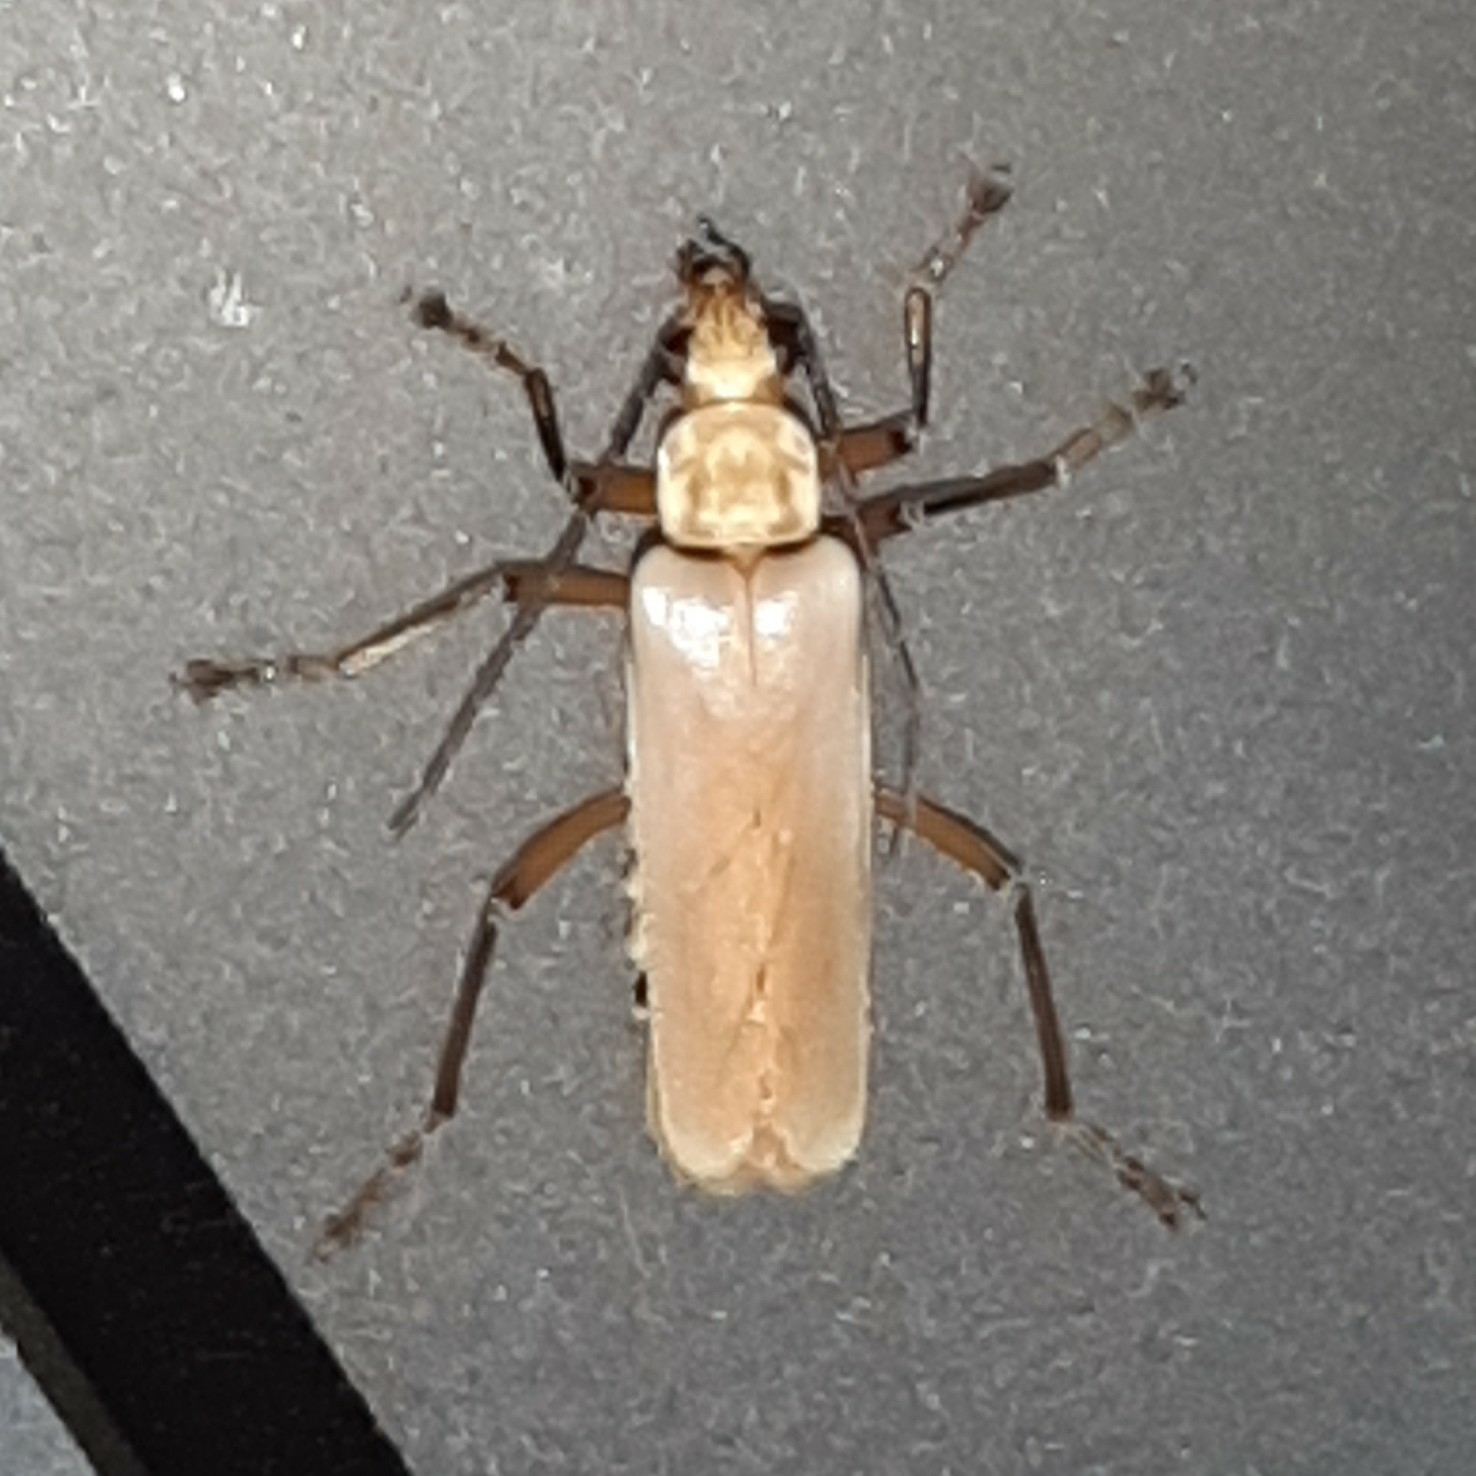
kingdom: Animalia
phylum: Arthropoda
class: Insecta
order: Coleoptera
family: Cantharidae
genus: Chauliognathus
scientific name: Chauliognathus
